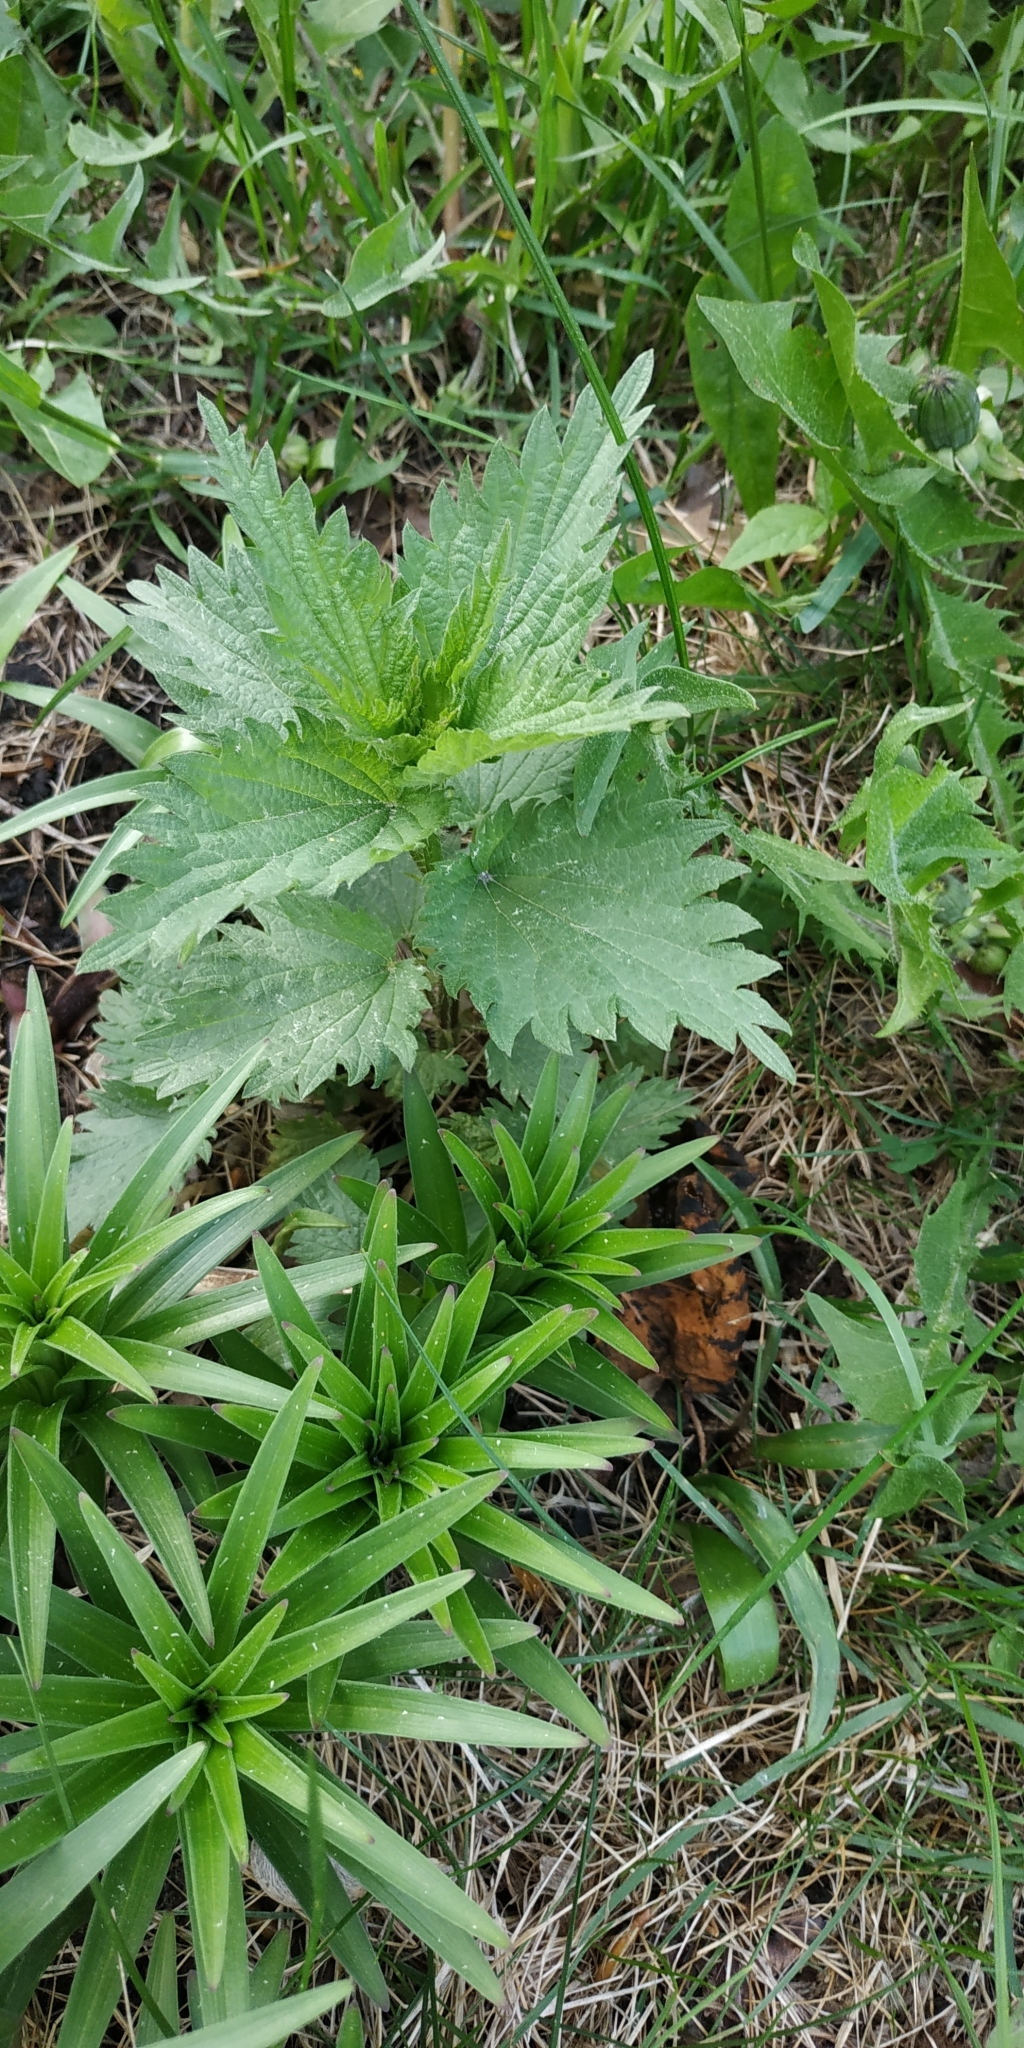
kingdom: Plantae
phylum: Tracheophyta
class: Magnoliopsida
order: Rosales
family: Urticaceae
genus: Urtica
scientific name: Urtica dioica
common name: Common nettle
